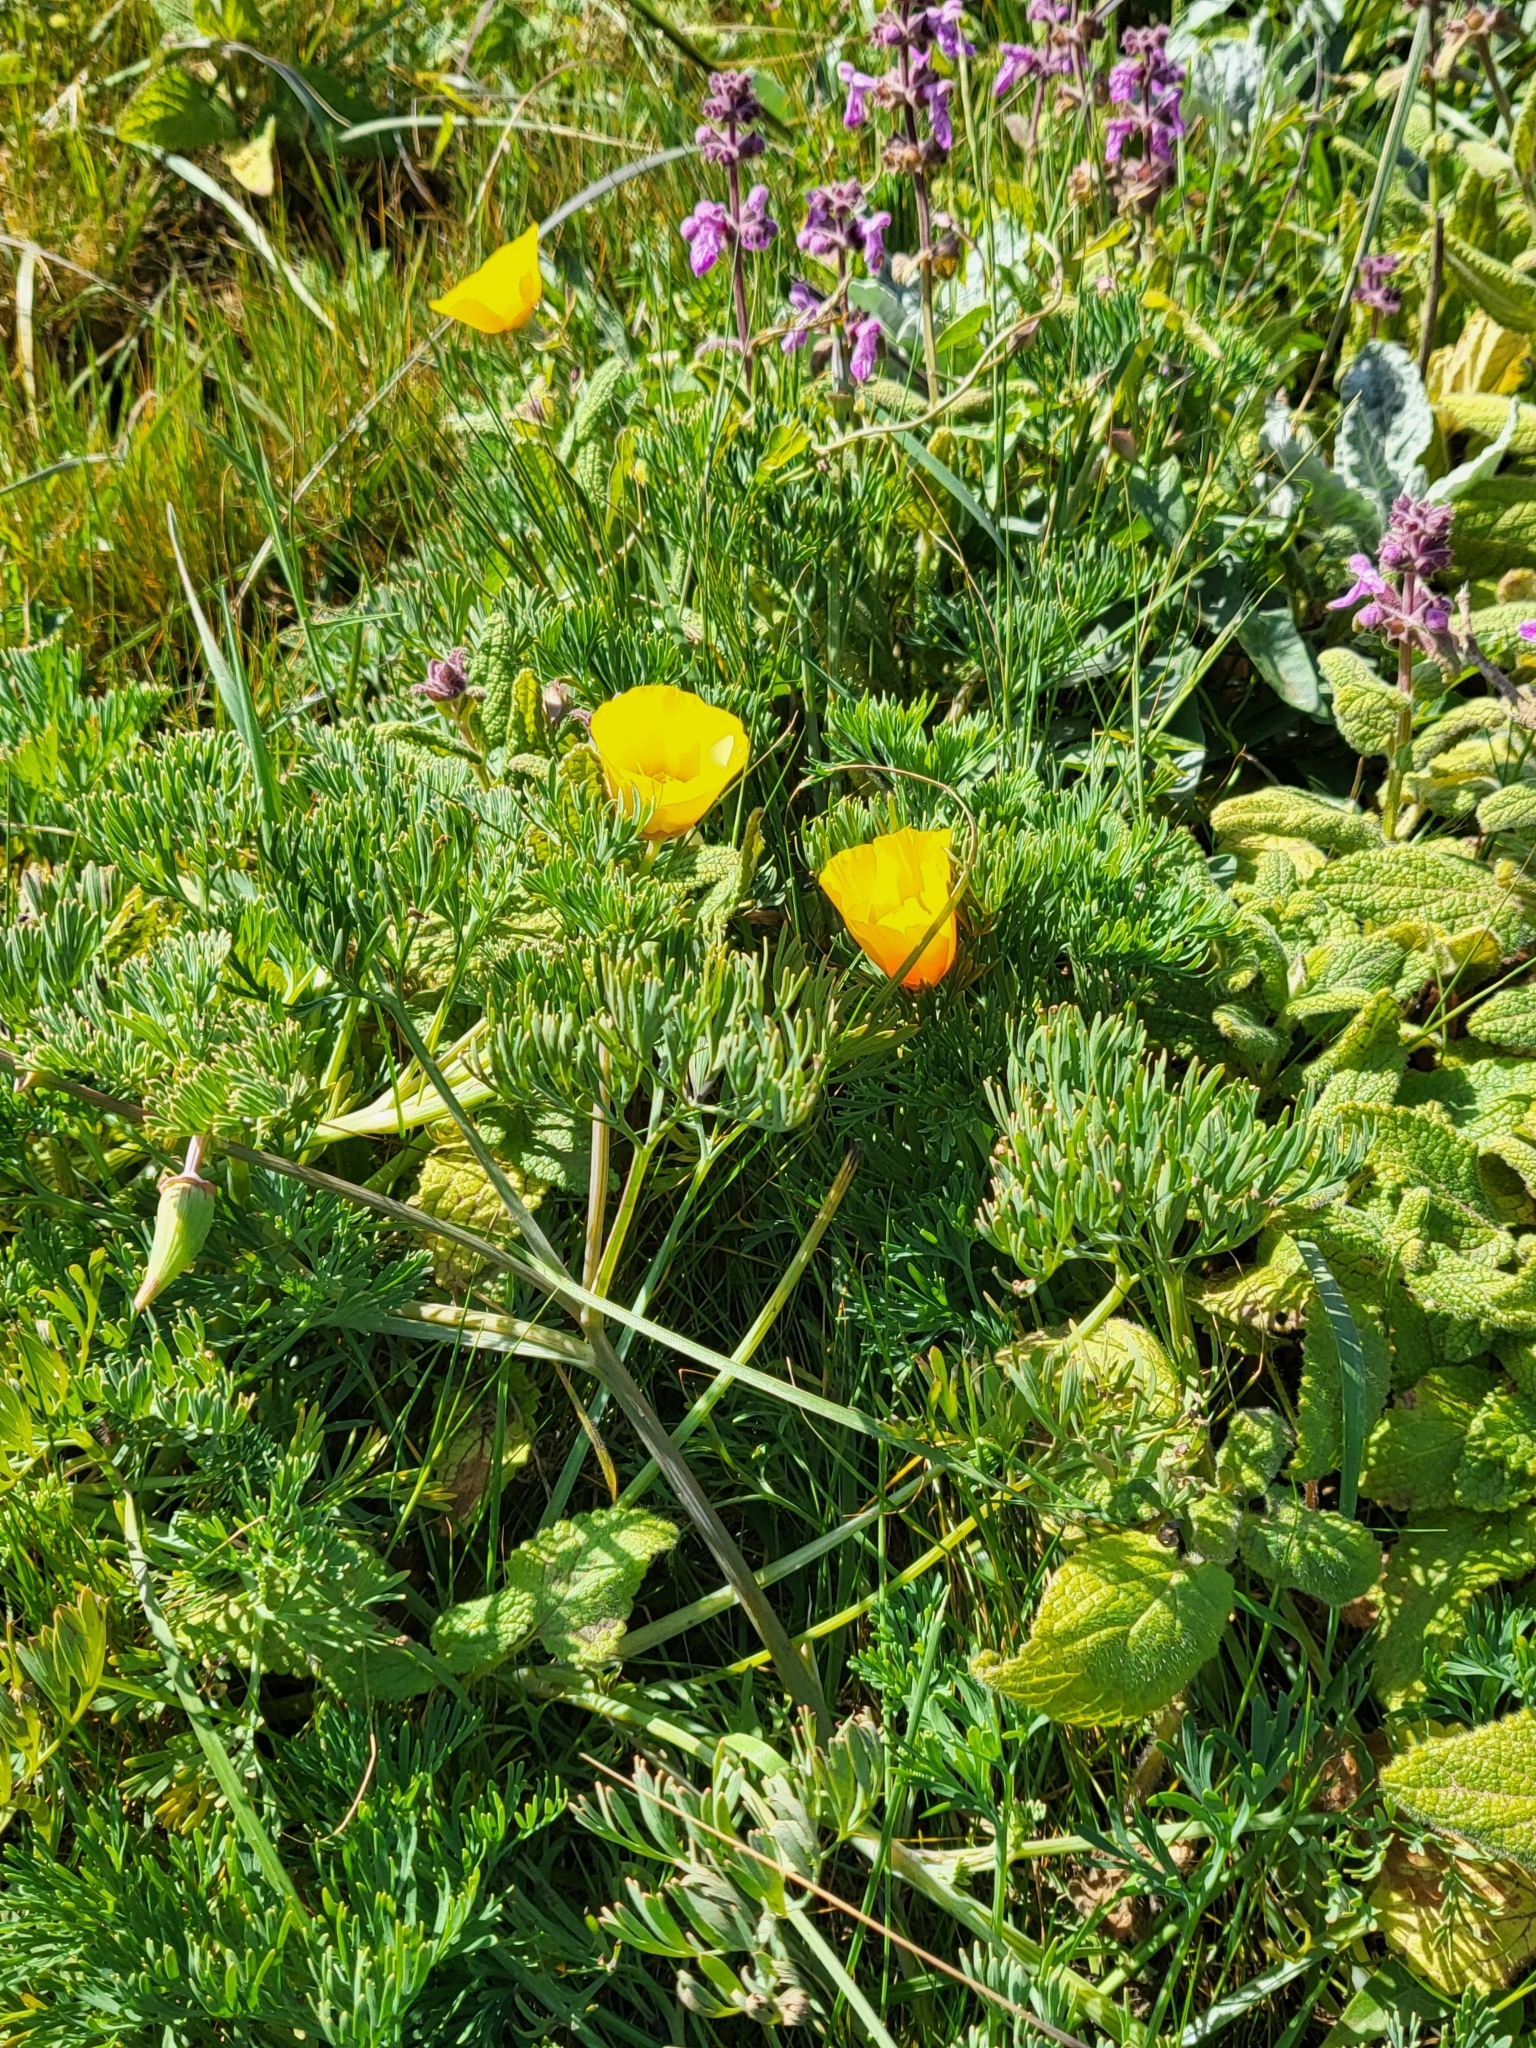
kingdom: Plantae
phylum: Tracheophyta
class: Magnoliopsida
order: Ranunculales
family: Papaveraceae
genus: Eschscholzia
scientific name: Eschscholzia californica
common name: California poppy
